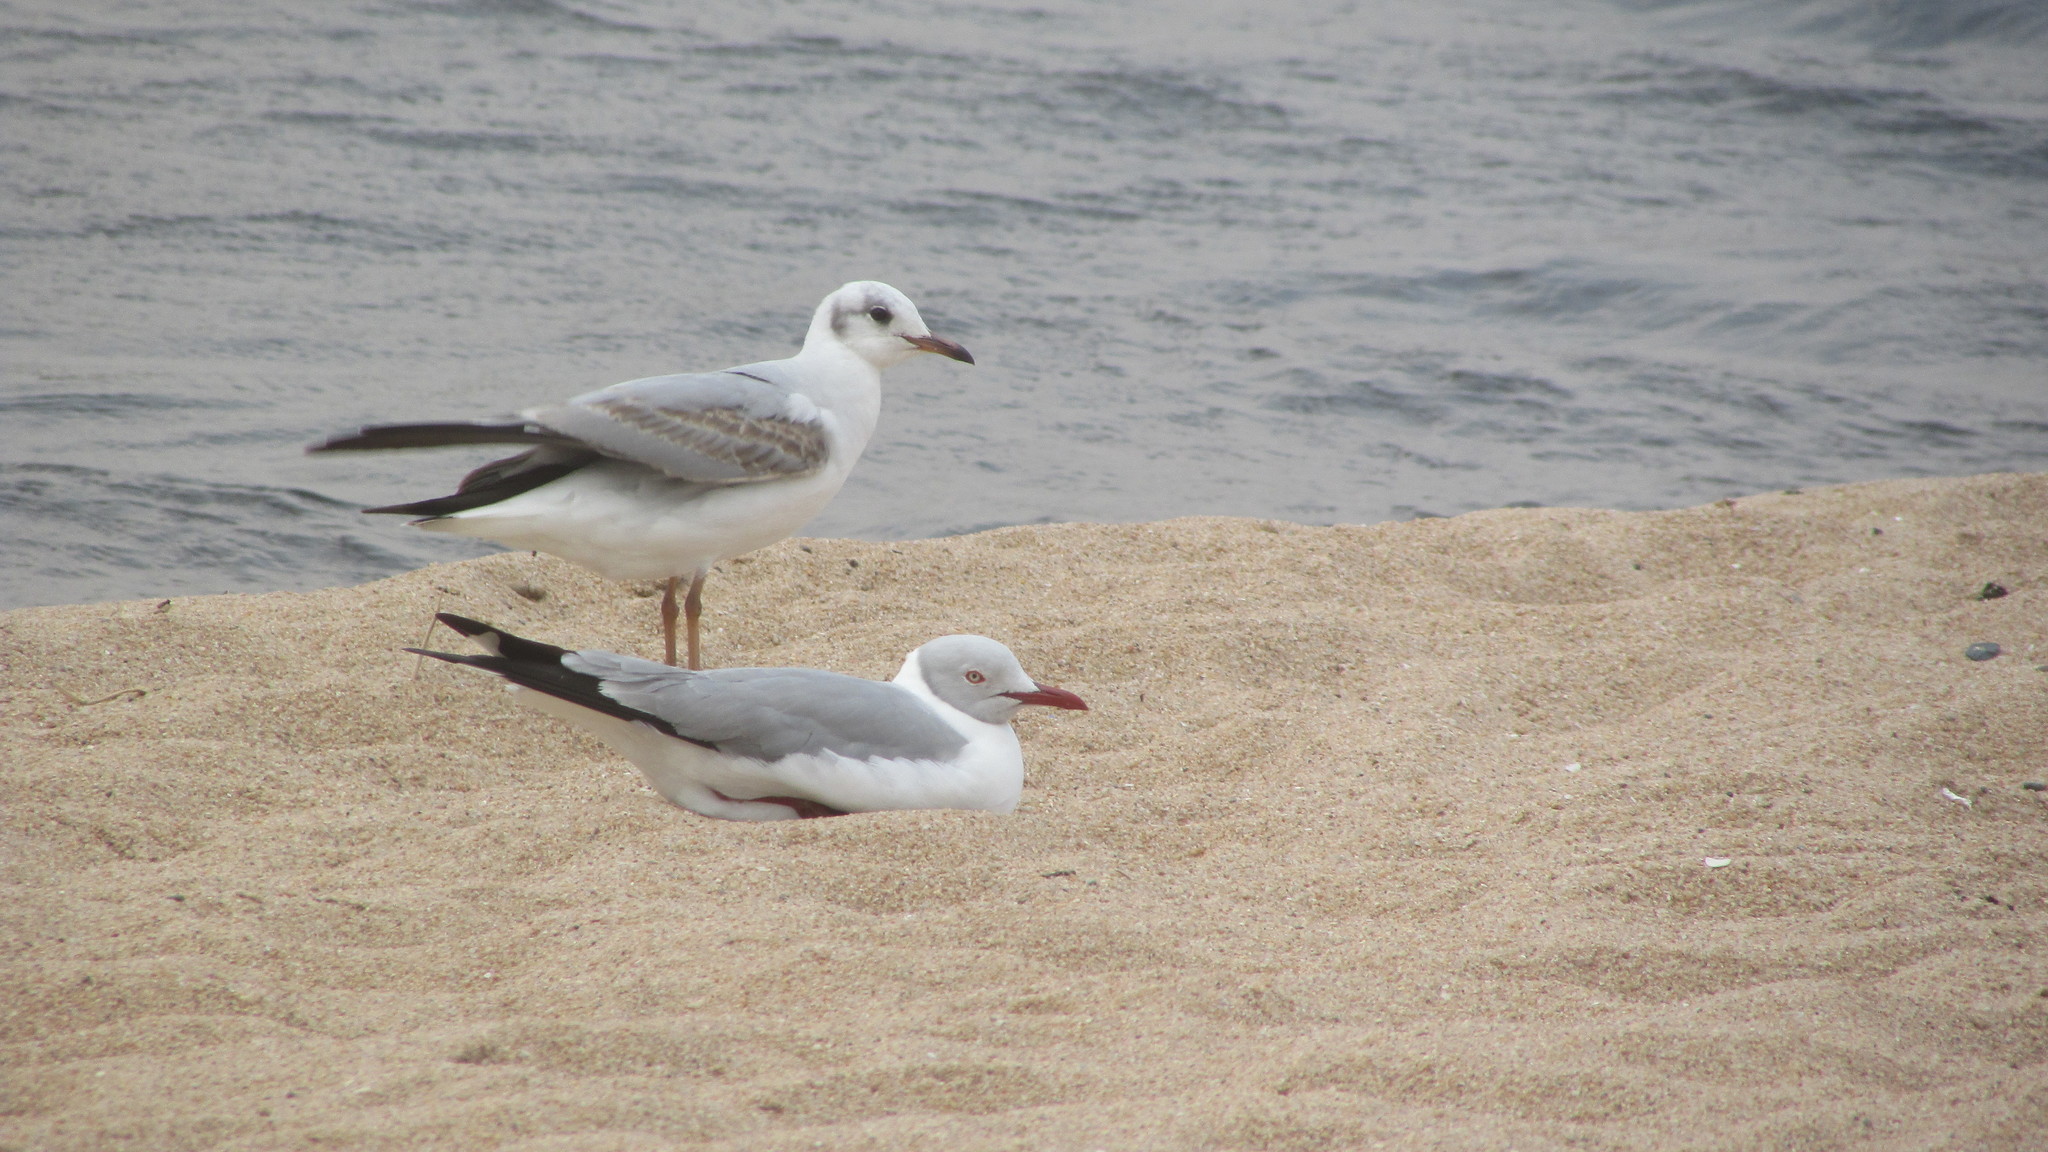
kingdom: Animalia
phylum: Chordata
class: Aves
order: Charadriiformes
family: Laridae
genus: Chroicocephalus
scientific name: Chroicocephalus cirrocephalus
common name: Grey-headed gull
